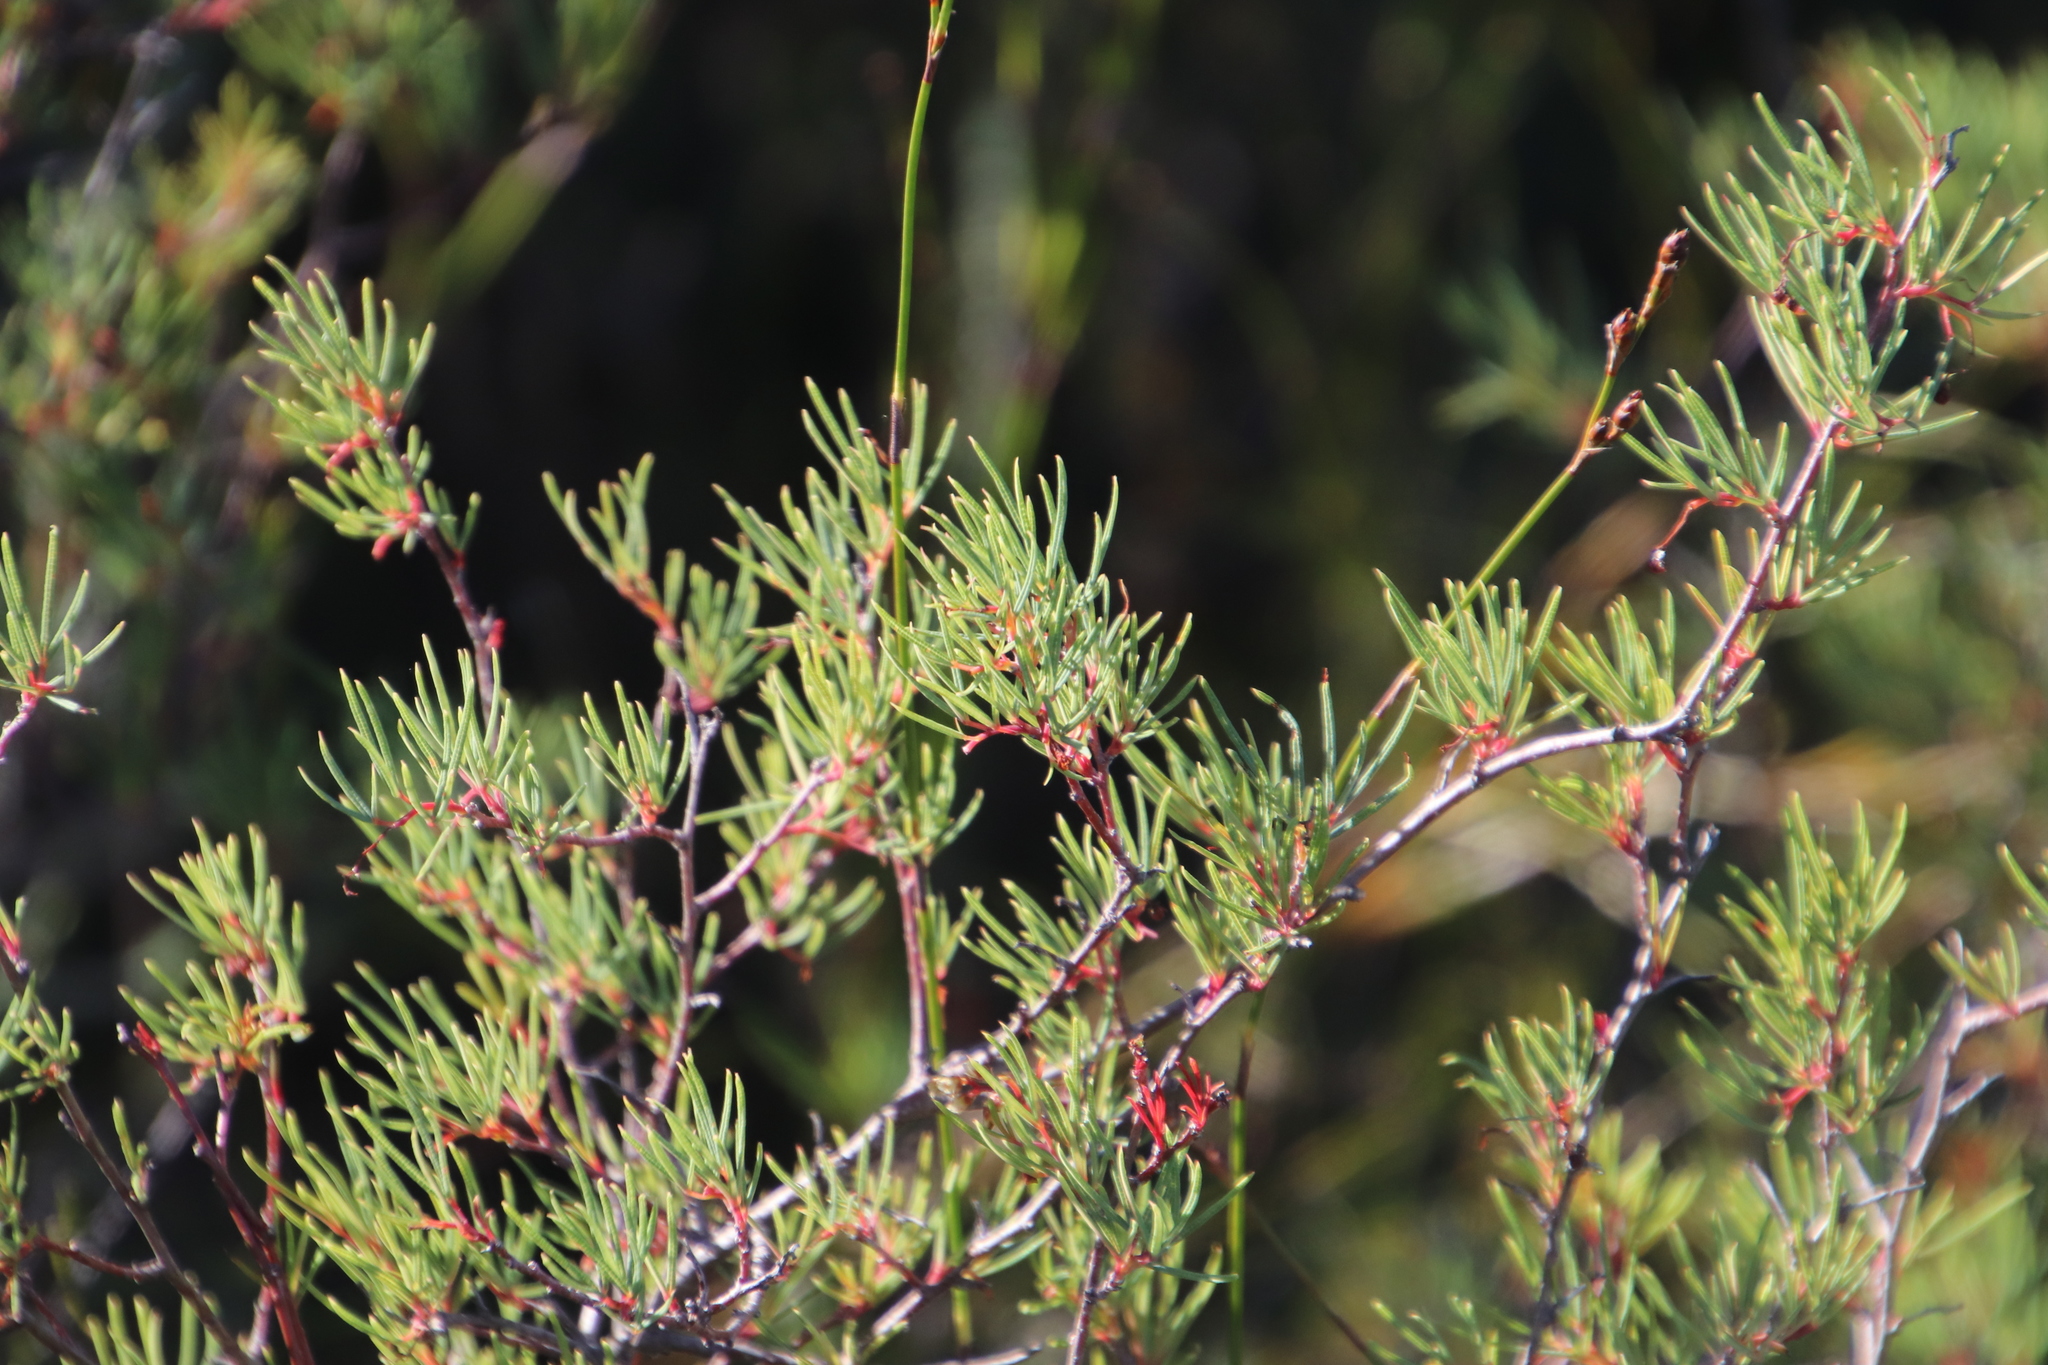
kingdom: Plantae
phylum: Tracheophyta
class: Magnoliopsida
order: Sapindales
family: Anacardiaceae
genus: Searsia
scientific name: Searsia rosmarinifolia
